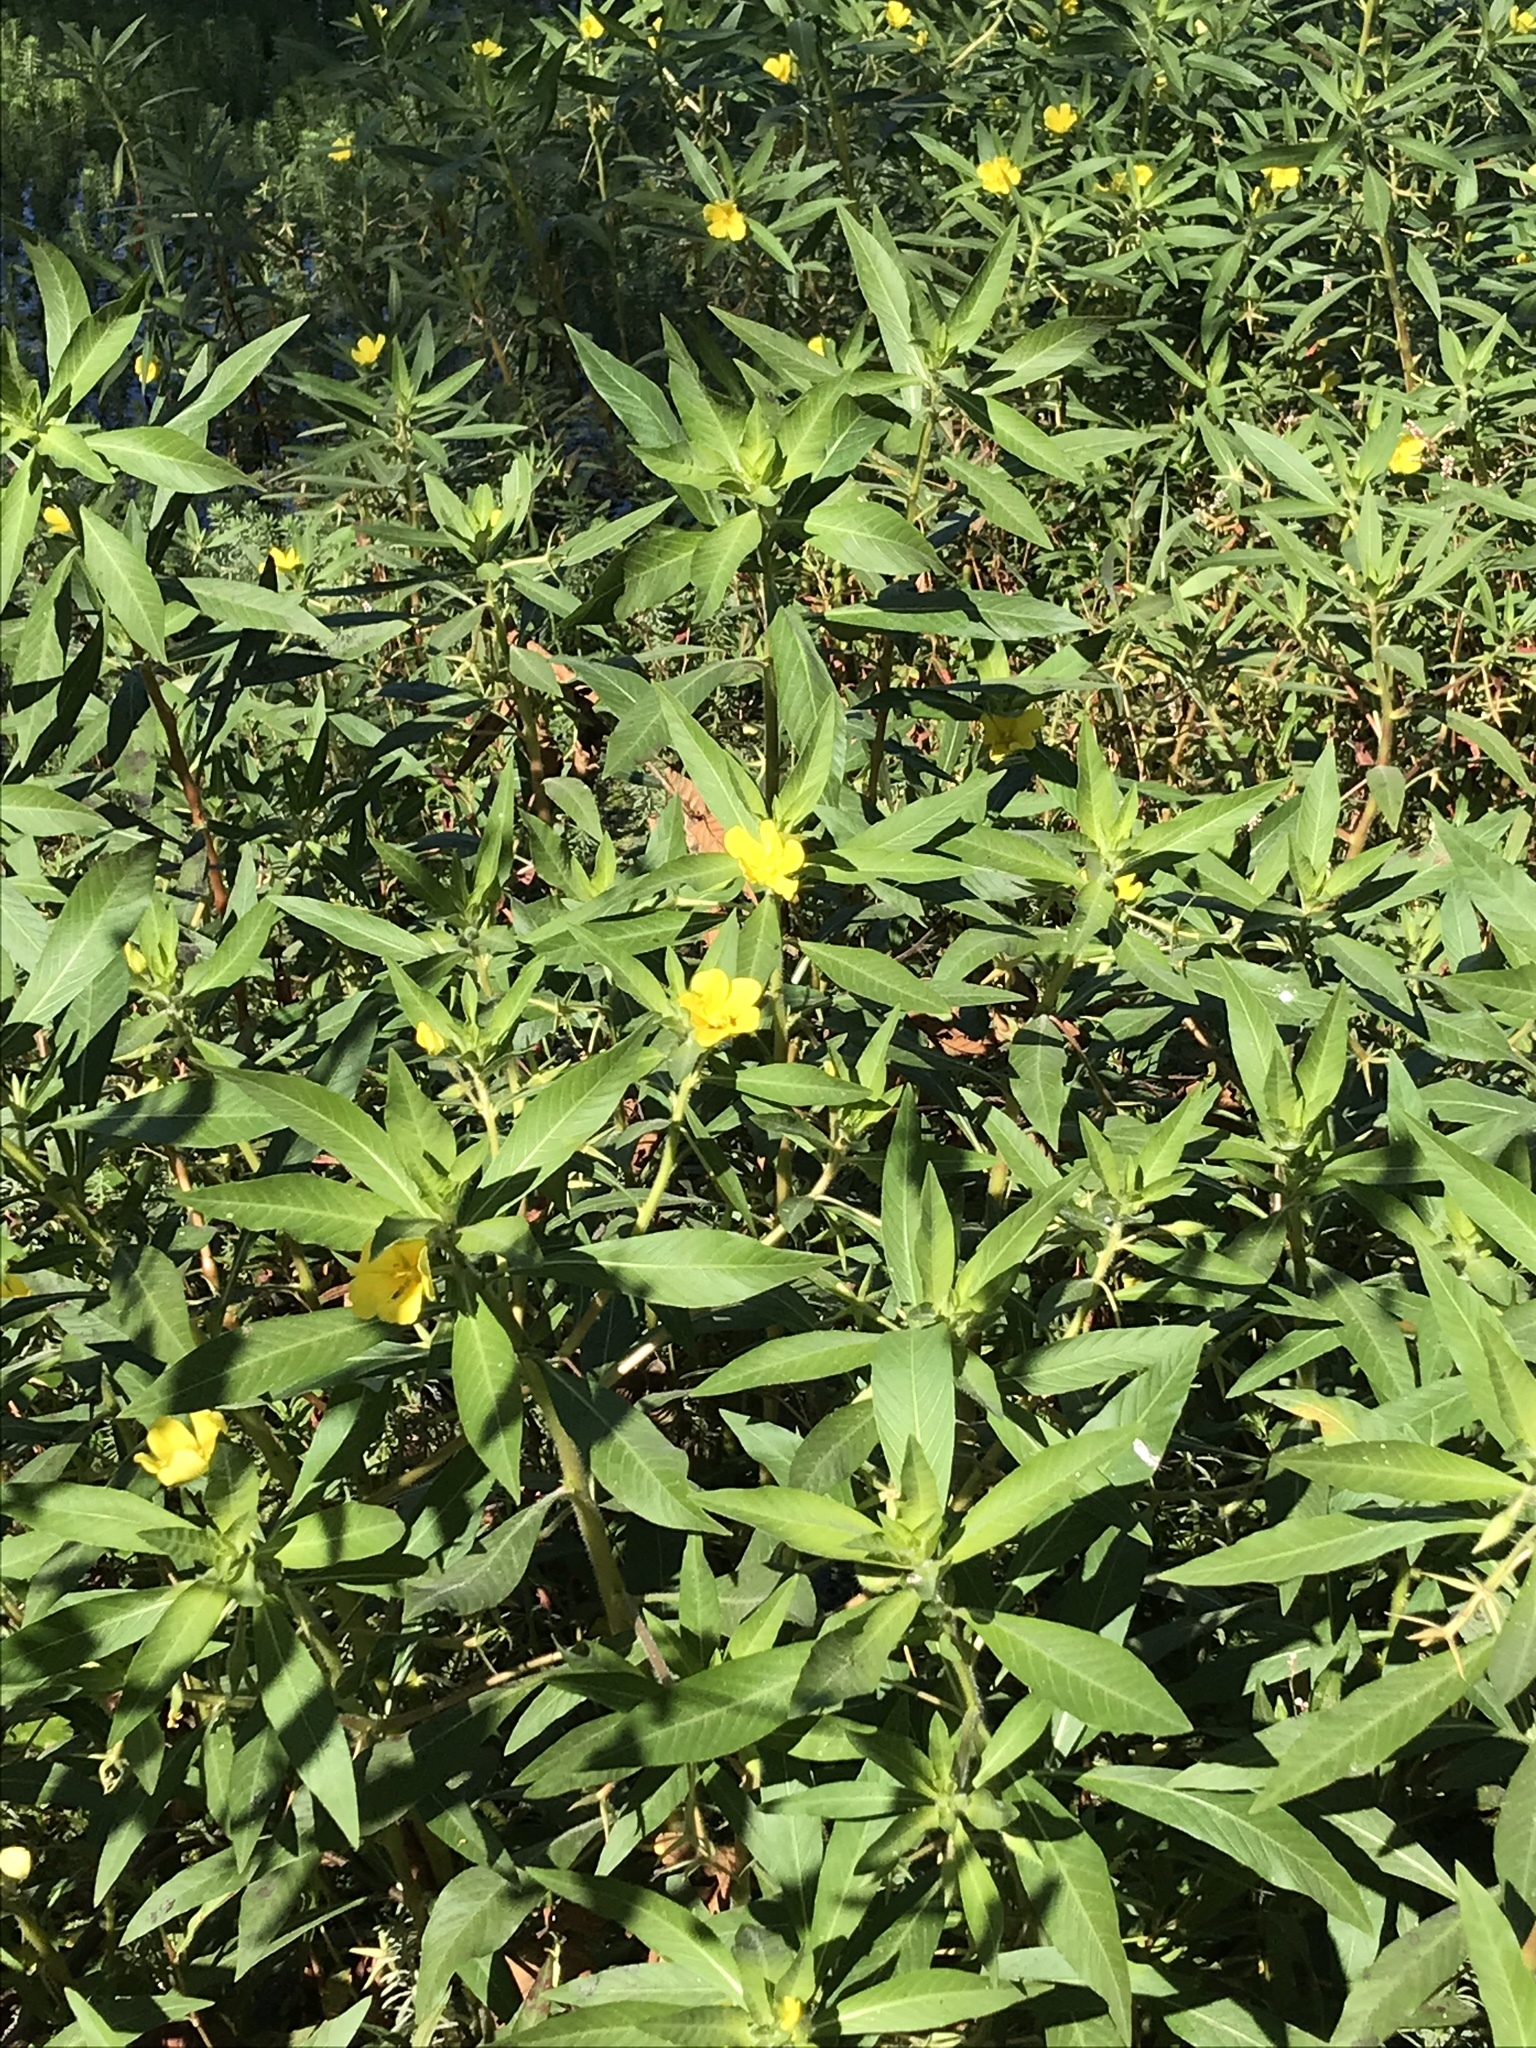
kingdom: Plantae
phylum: Tracheophyta
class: Magnoliopsida
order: Myrtales
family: Onagraceae
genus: Ludwigia
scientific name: Ludwigia hexapetala
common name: Water-primrose
